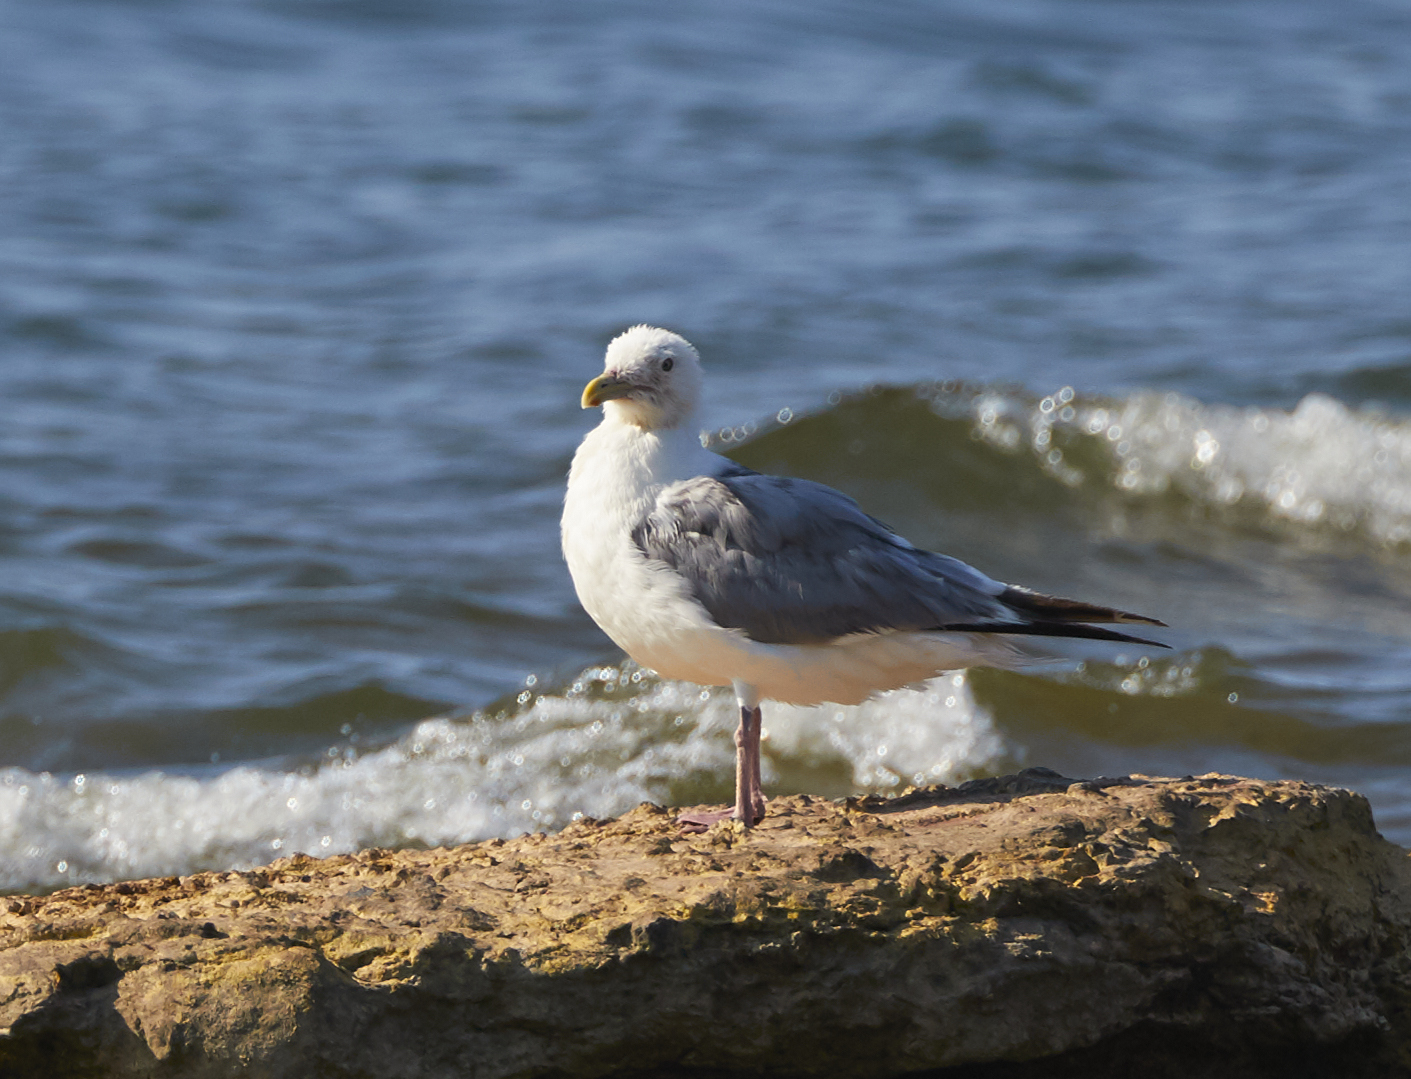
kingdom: Animalia
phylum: Chordata
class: Aves
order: Charadriiformes
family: Laridae
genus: Larus
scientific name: Larus argentatus
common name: Herring gull
